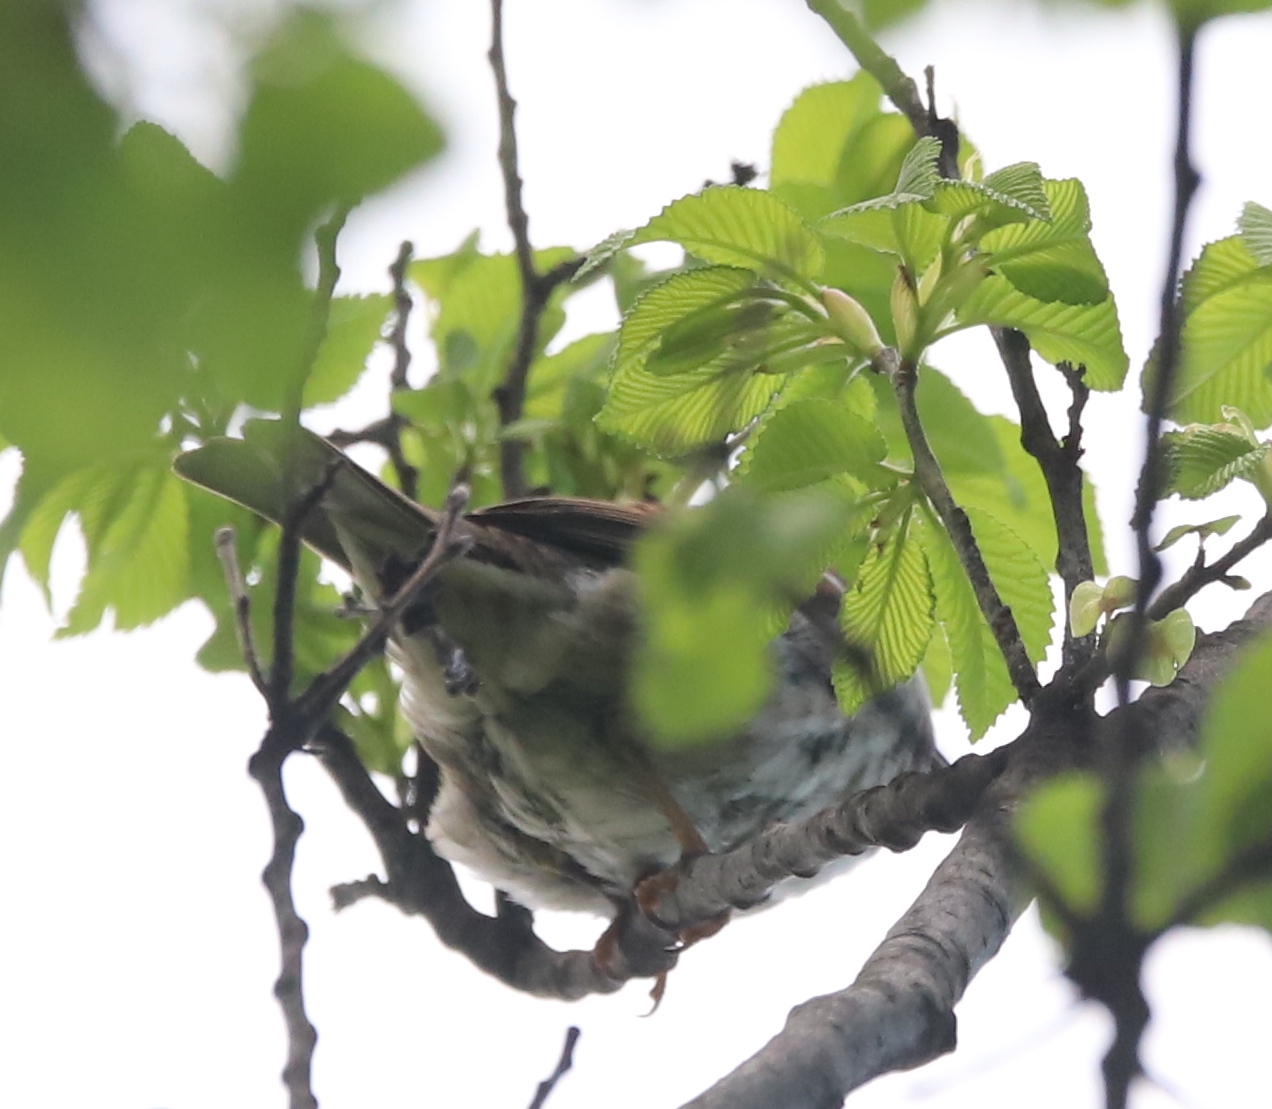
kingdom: Animalia
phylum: Chordata
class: Aves
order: Passeriformes
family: Passeridae
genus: Passer
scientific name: Passer domesticus
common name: House sparrow
